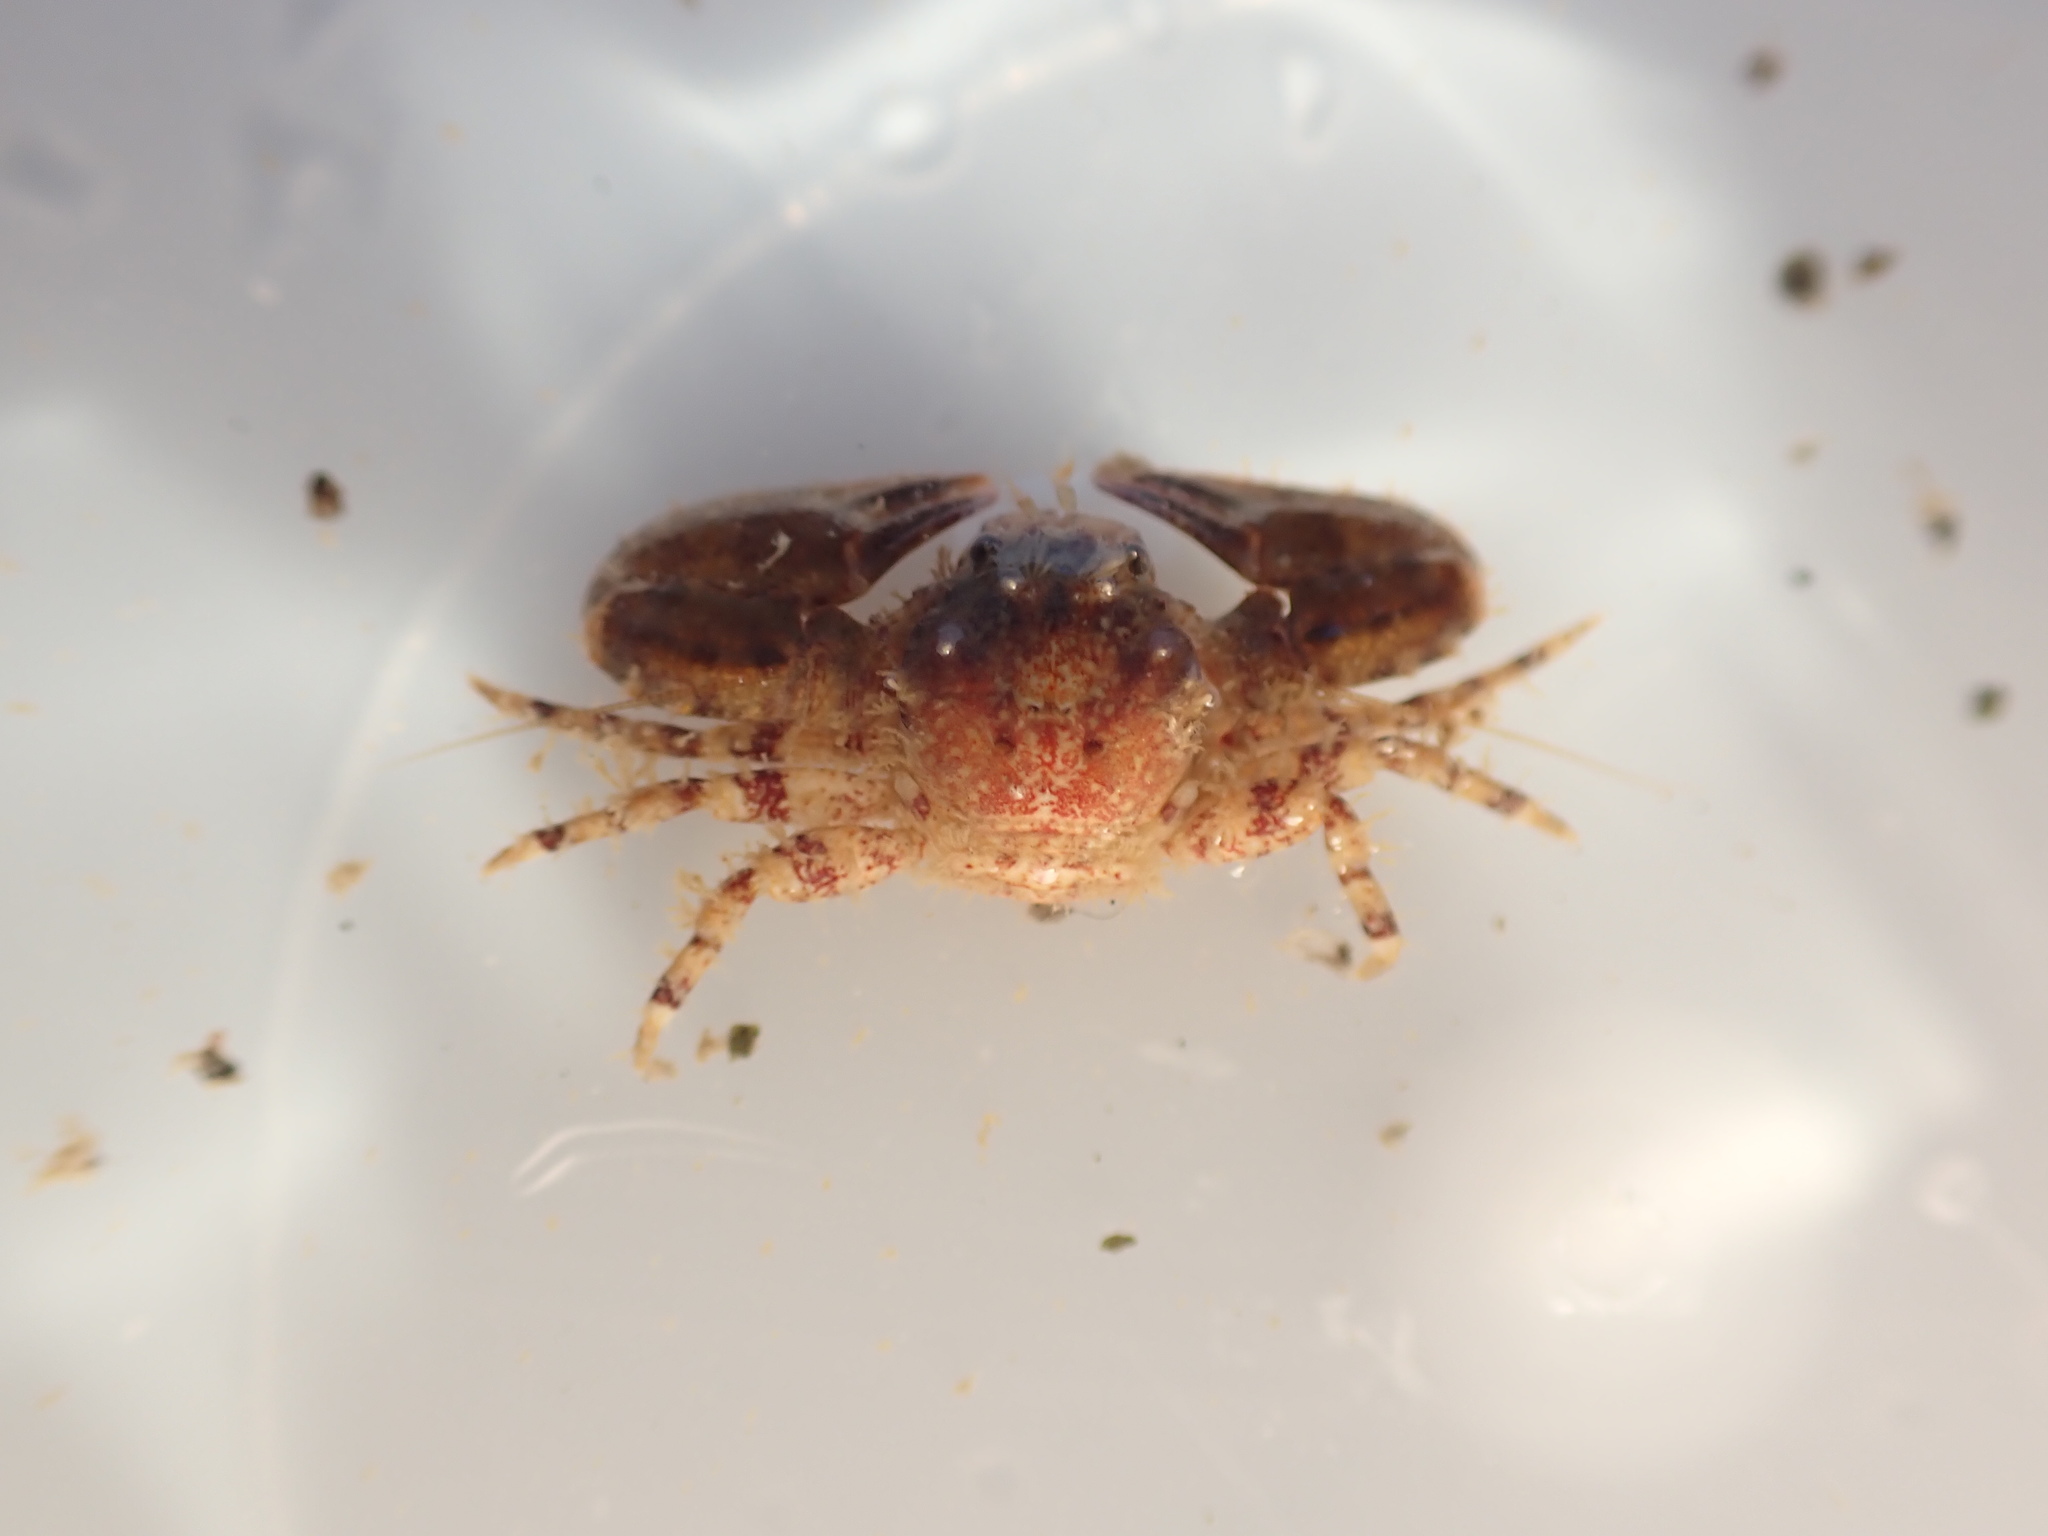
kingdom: Animalia
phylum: Arthropoda
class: Malacostraca
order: Decapoda
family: Porcellanidae
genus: Petrolisthes
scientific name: Petrolisthes novaezelandiae
